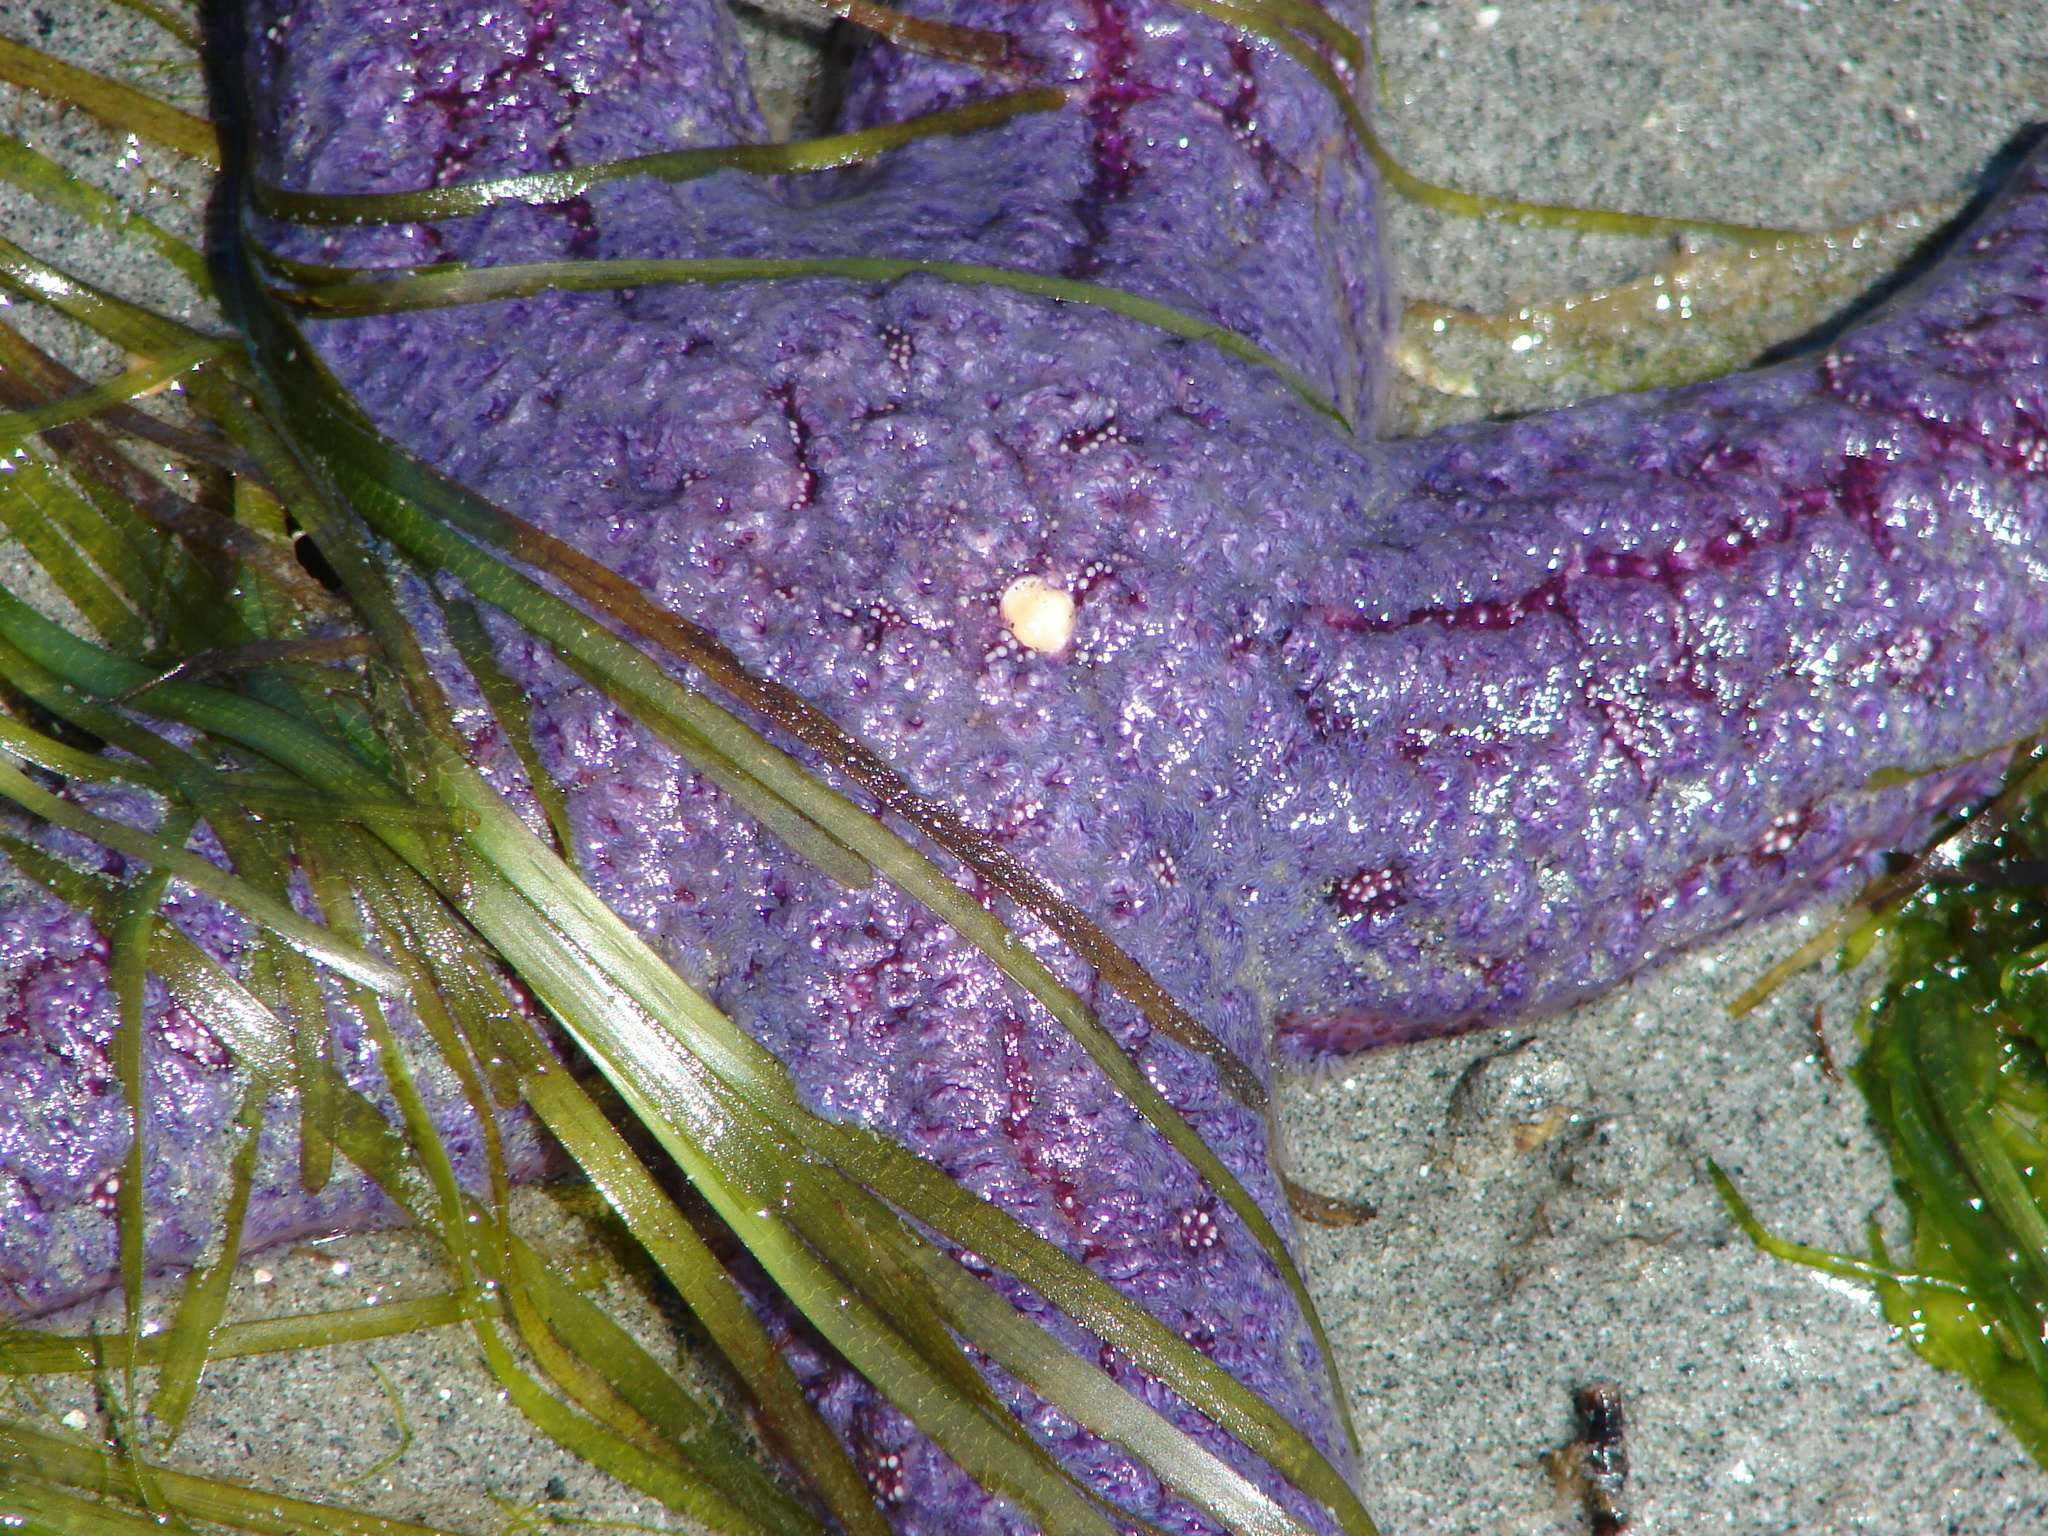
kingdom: Animalia
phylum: Echinodermata
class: Asteroidea
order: Forcipulatida
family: Asteriidae
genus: Pisaster
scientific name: Pisaster ochraceus
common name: Ochre stars
